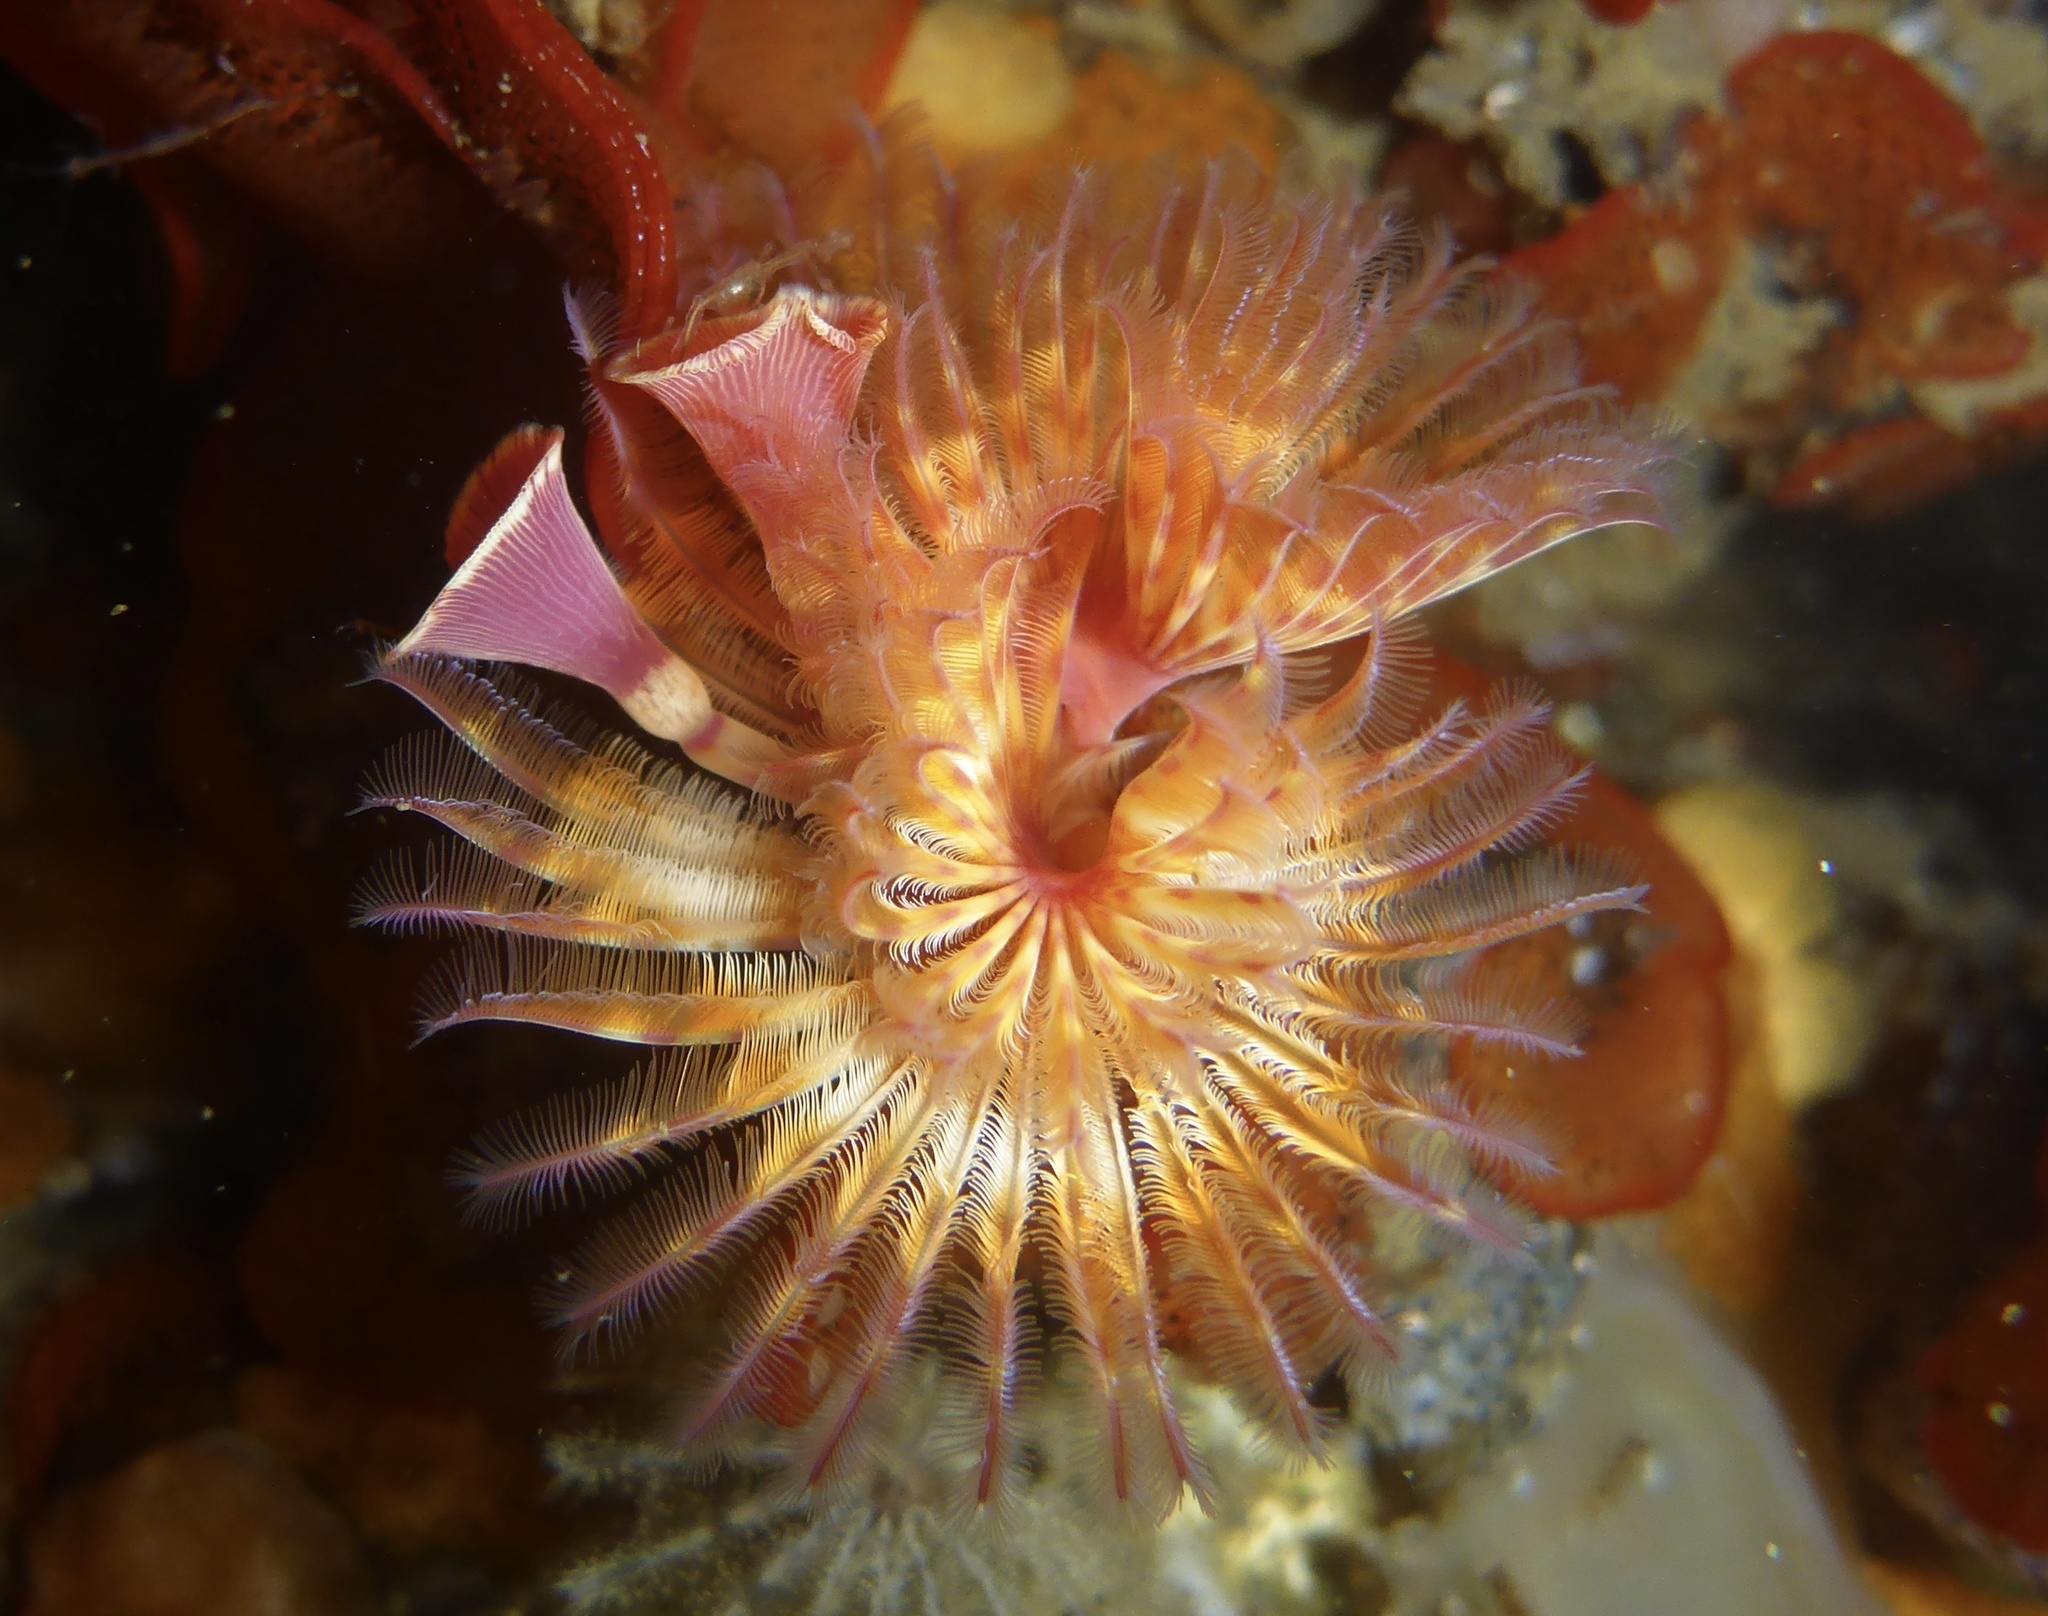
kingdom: Animalia
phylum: Annelida
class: Polychaeta
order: Sabellida
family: Serpulidae
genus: Serpula
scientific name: Serpula columbiana
